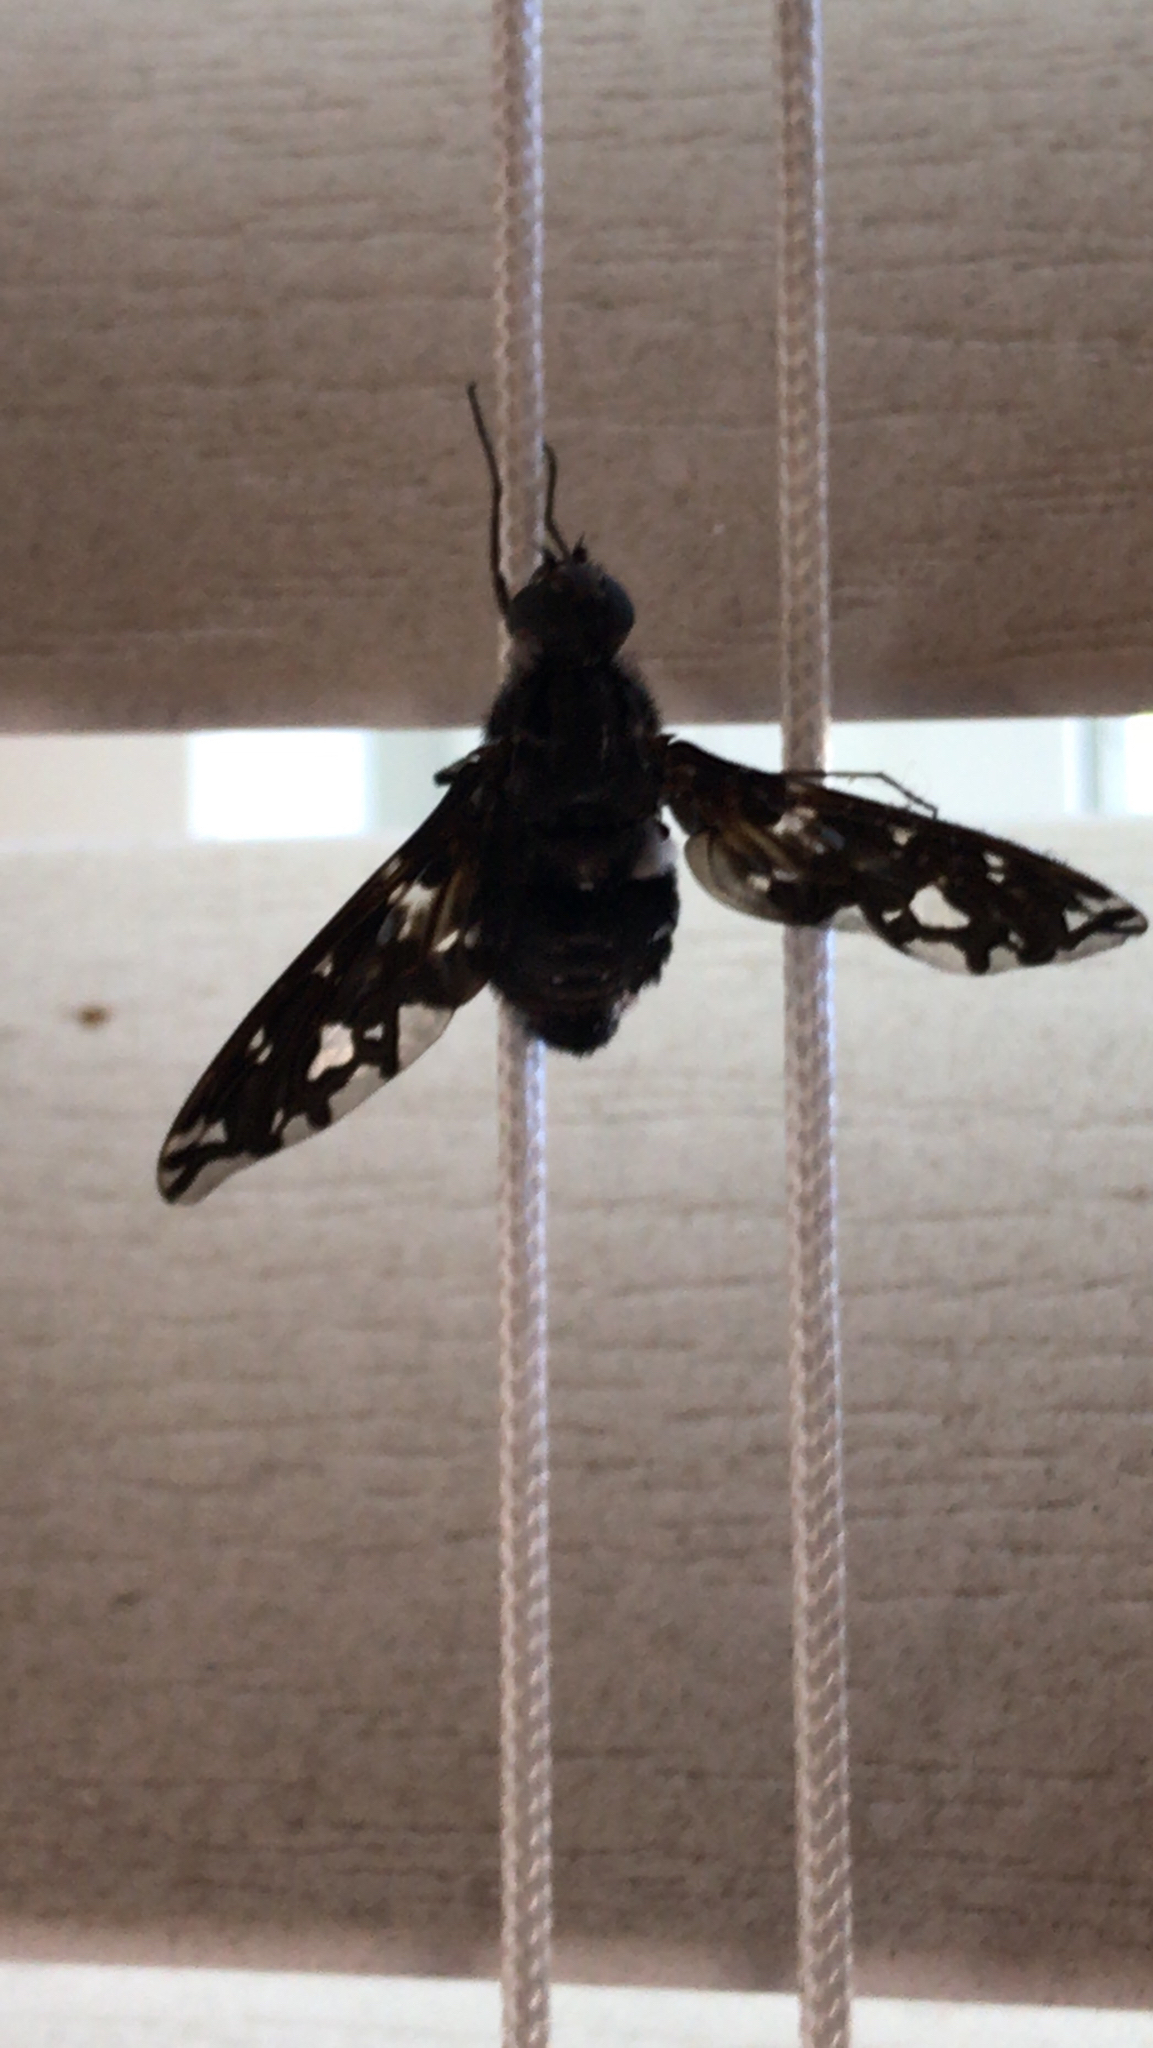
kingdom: Animalia
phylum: Arthropoda
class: Insecta
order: Diptera
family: Bombyliidae
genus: Xenox
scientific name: Xenox tigrinus
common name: Tiger bee fly
